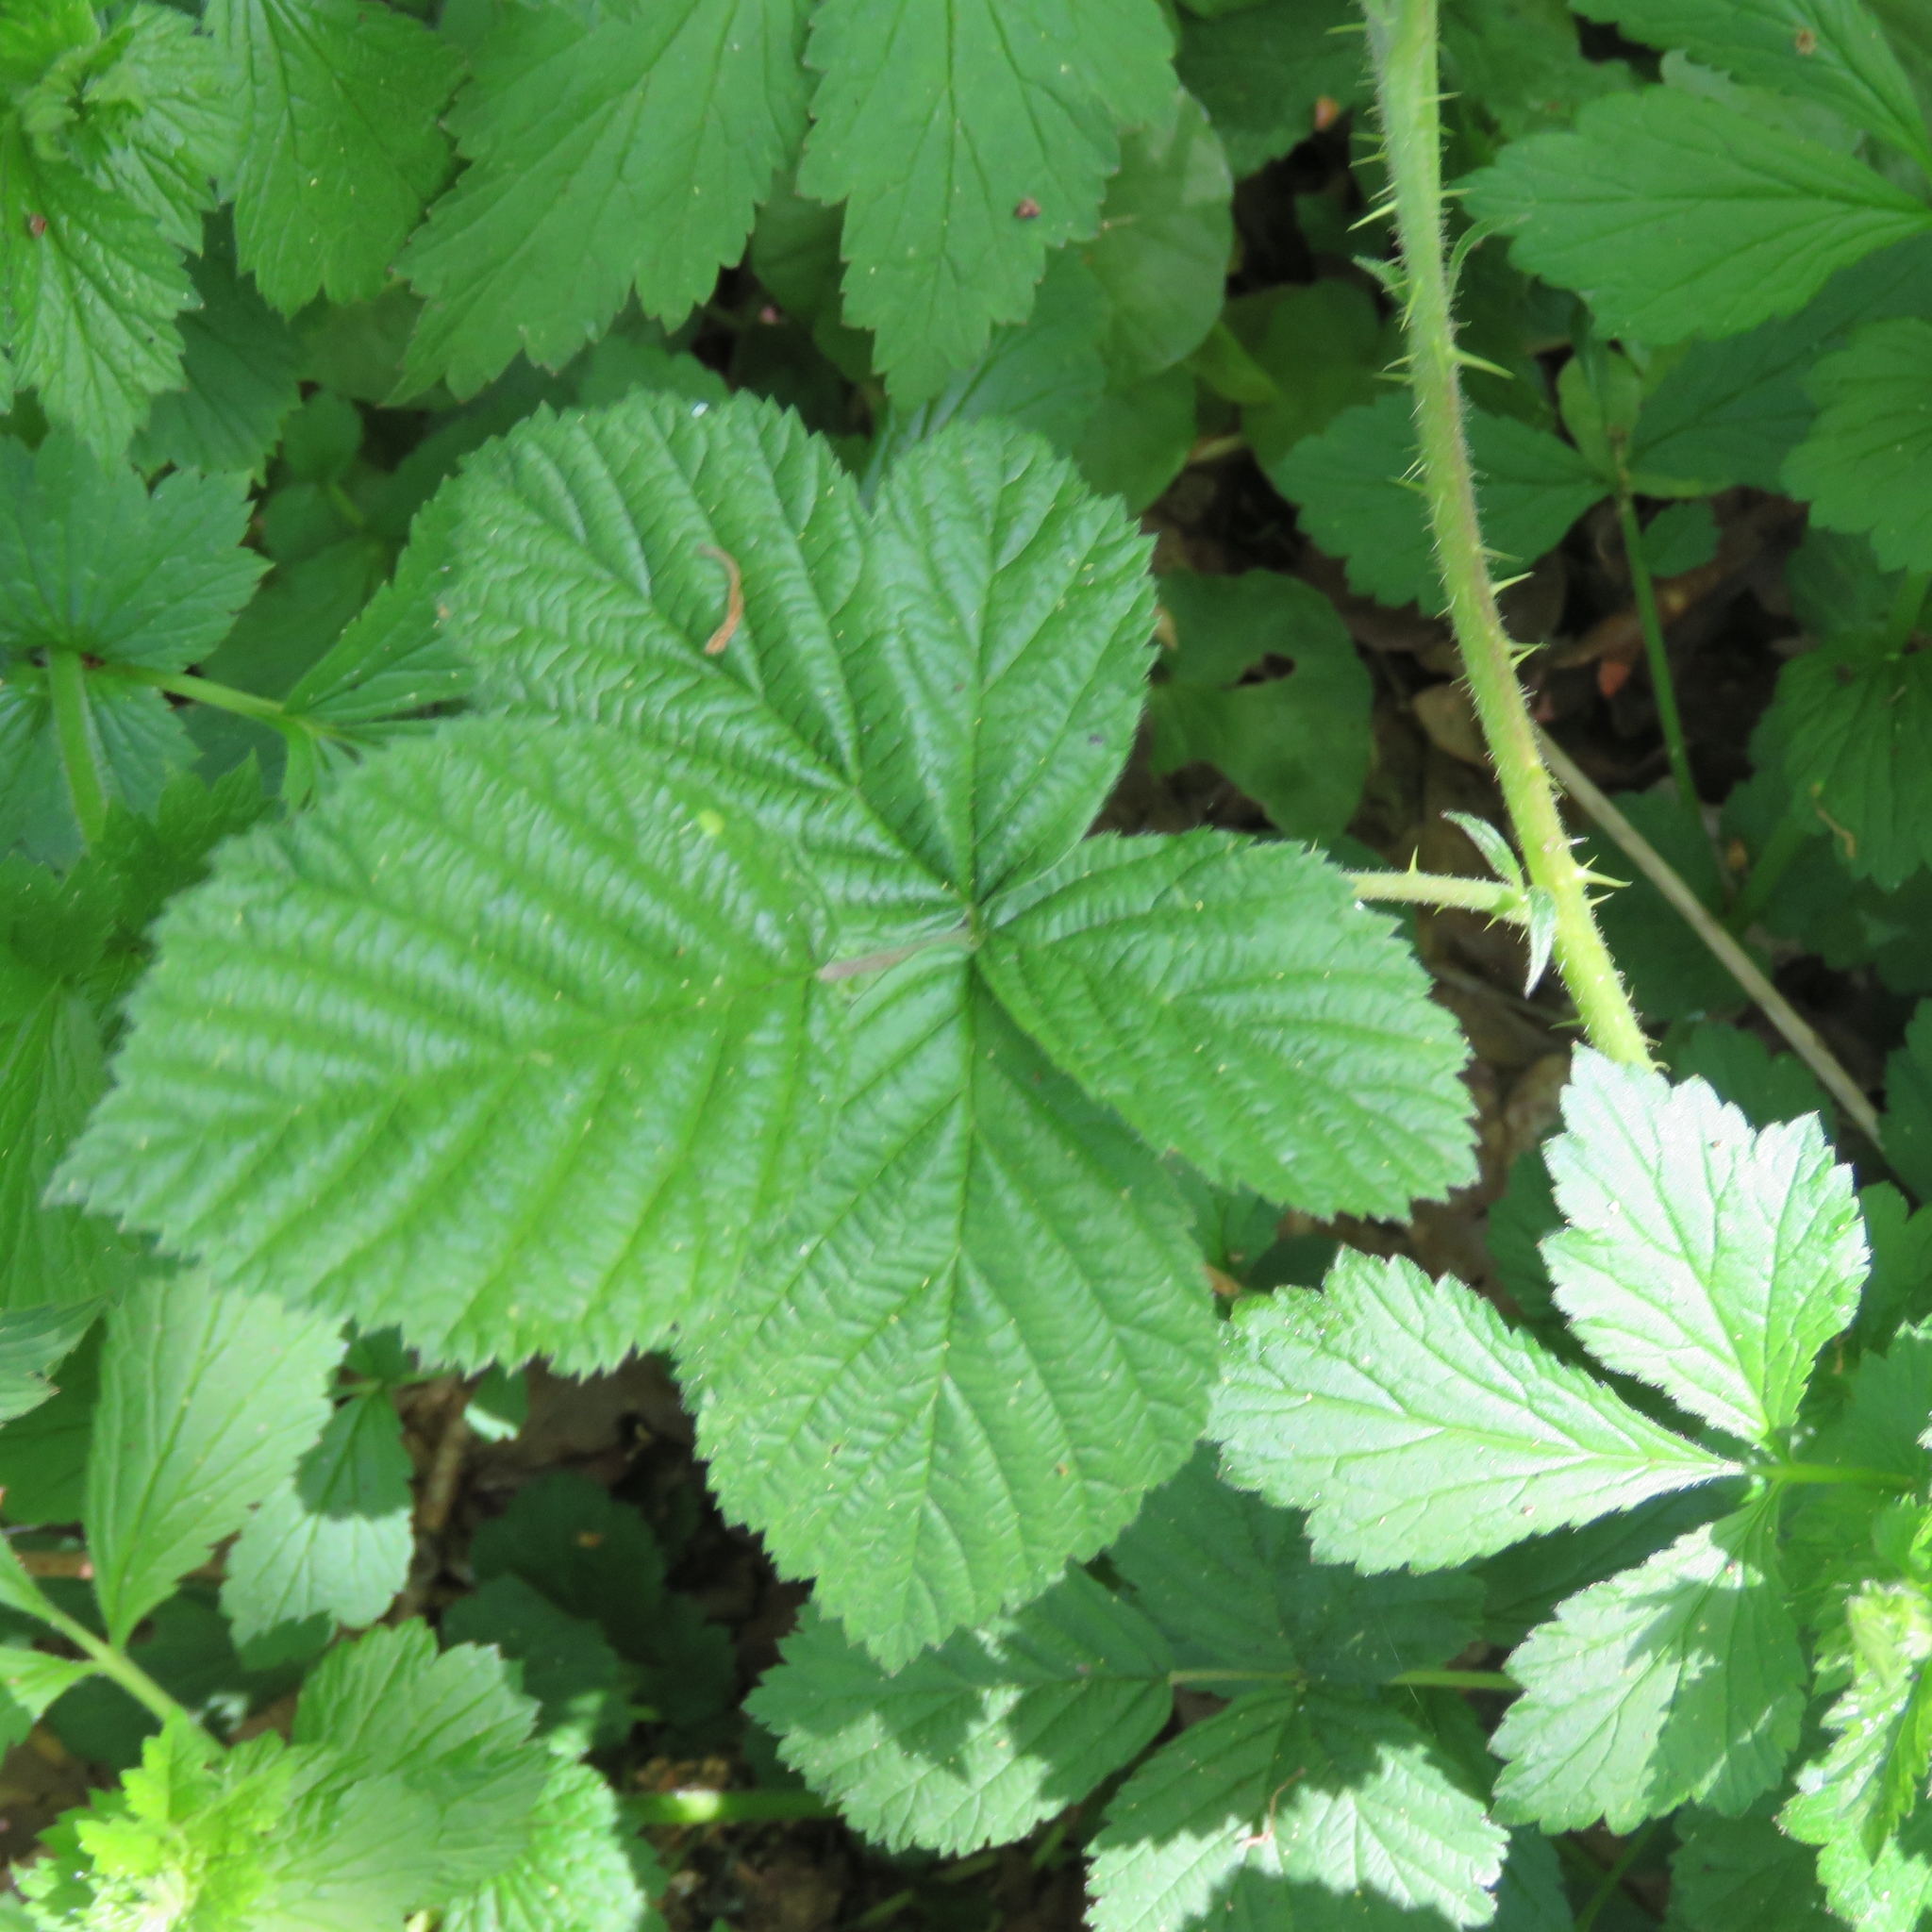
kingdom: Plantae
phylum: Tracheophyta
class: Magnoliopsida
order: Rosales
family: Rosaceae
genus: Rubus
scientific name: Rubus
